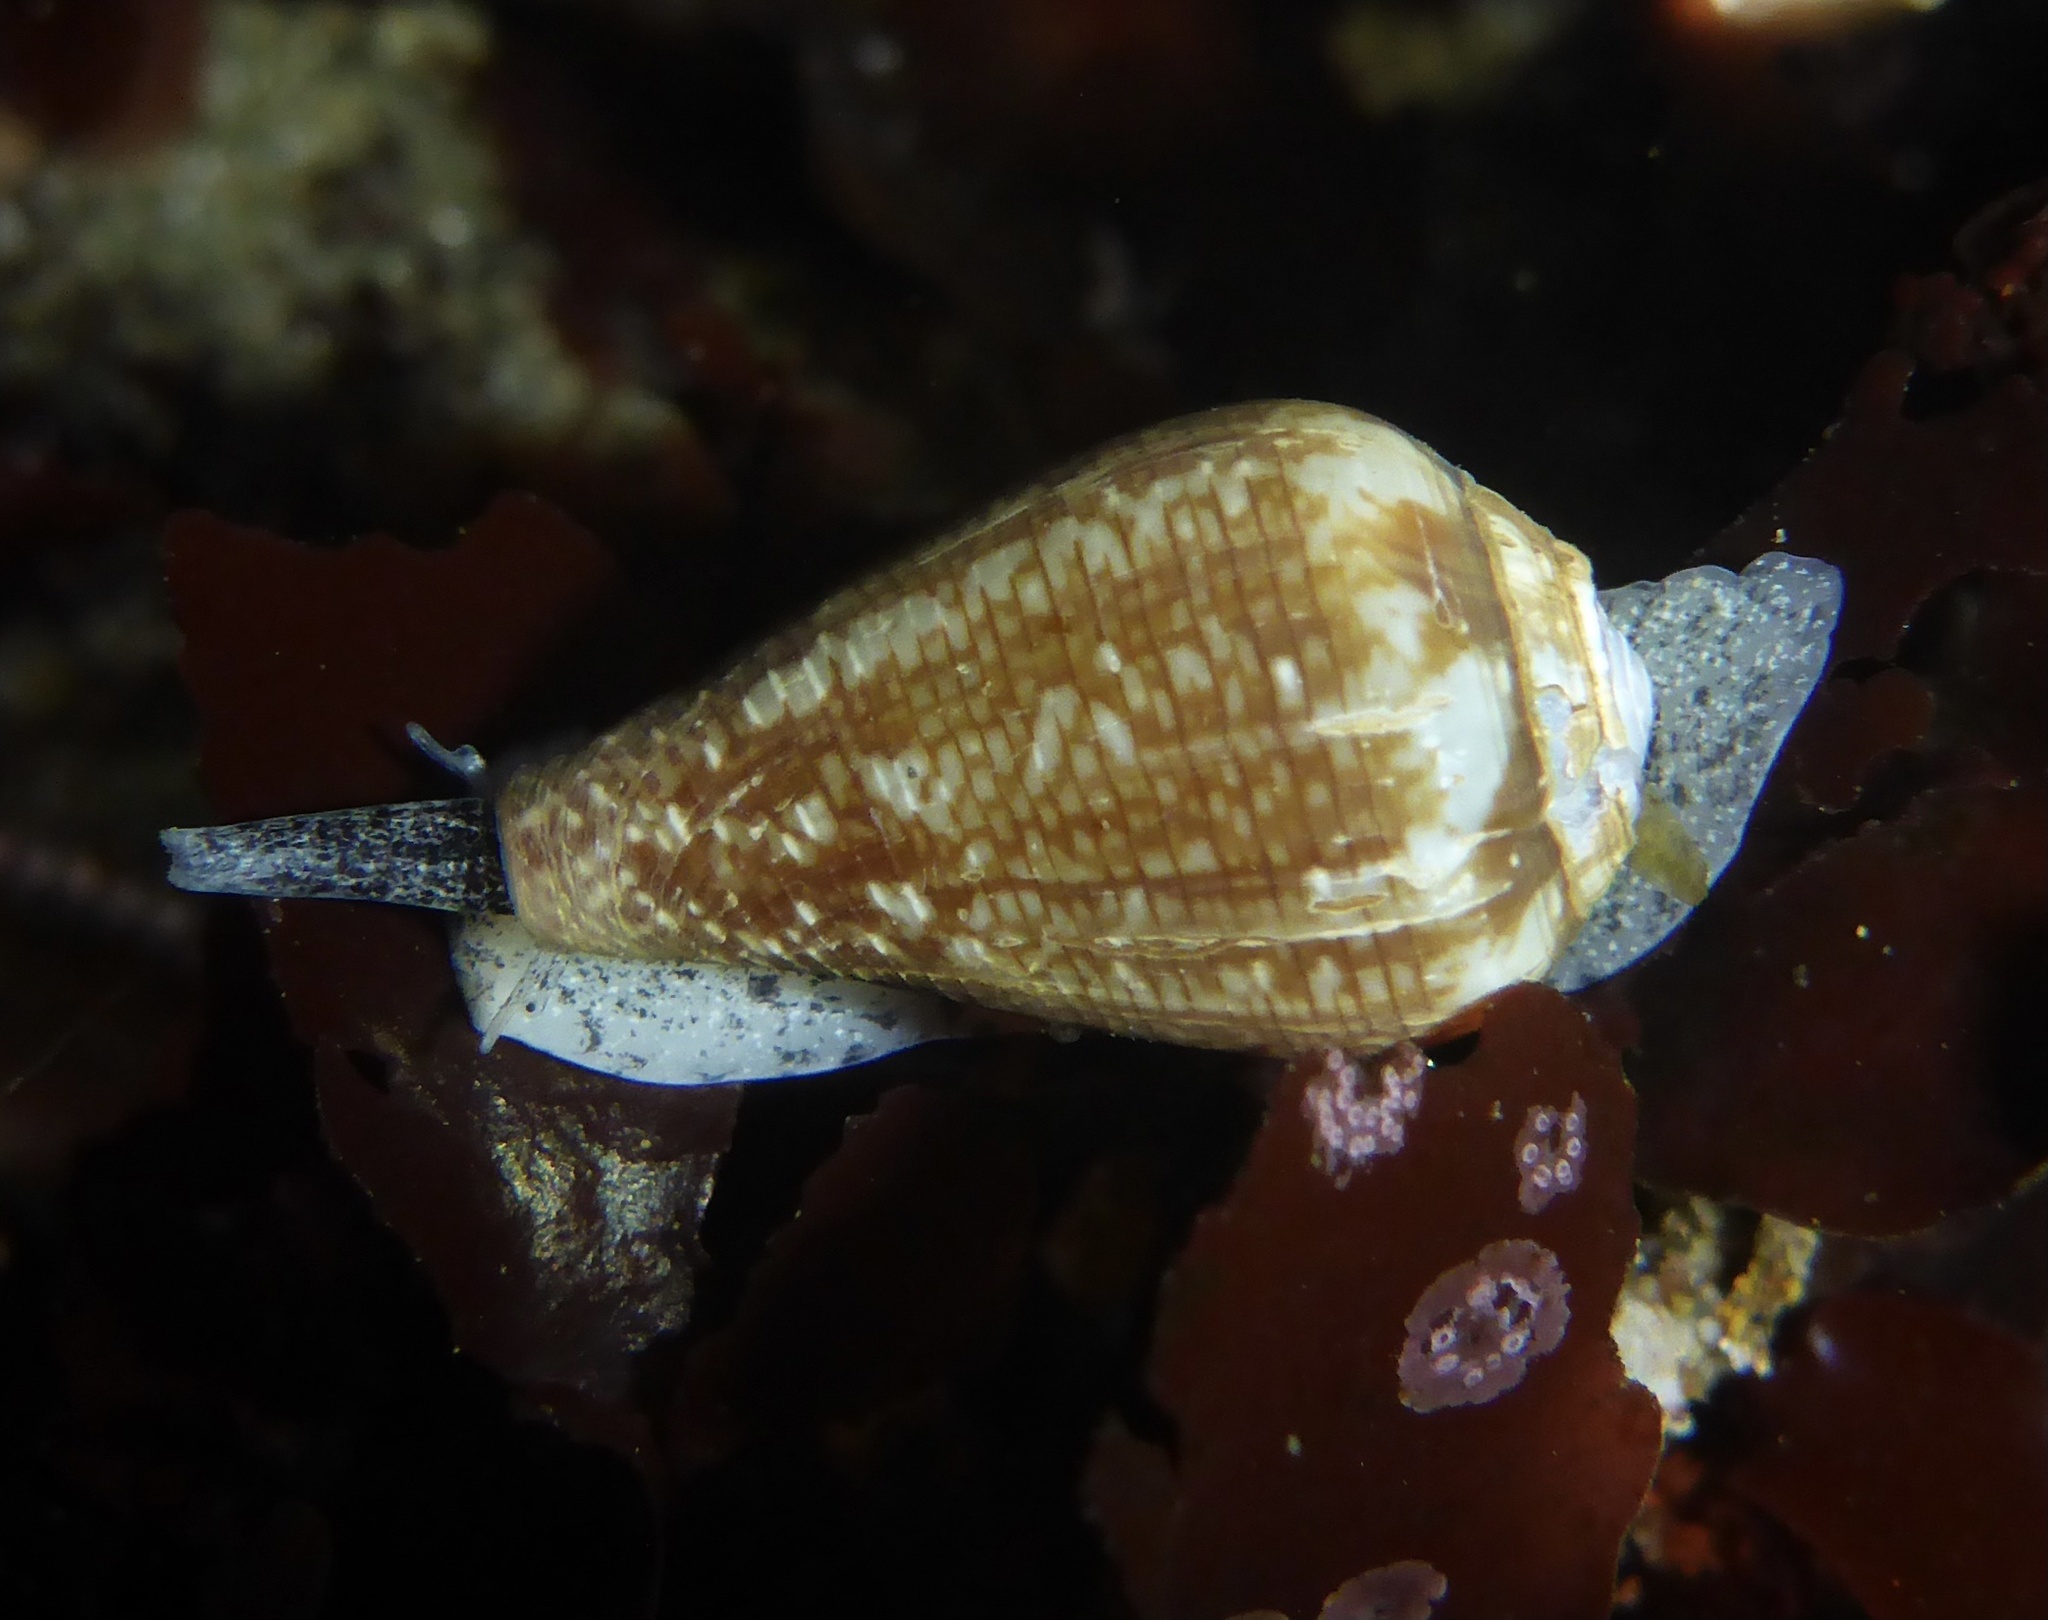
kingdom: Animalia
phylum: Mollusca
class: Gastropoda
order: Neogastropoda
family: Conidae
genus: Californiconus
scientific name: Californiconus californicus
